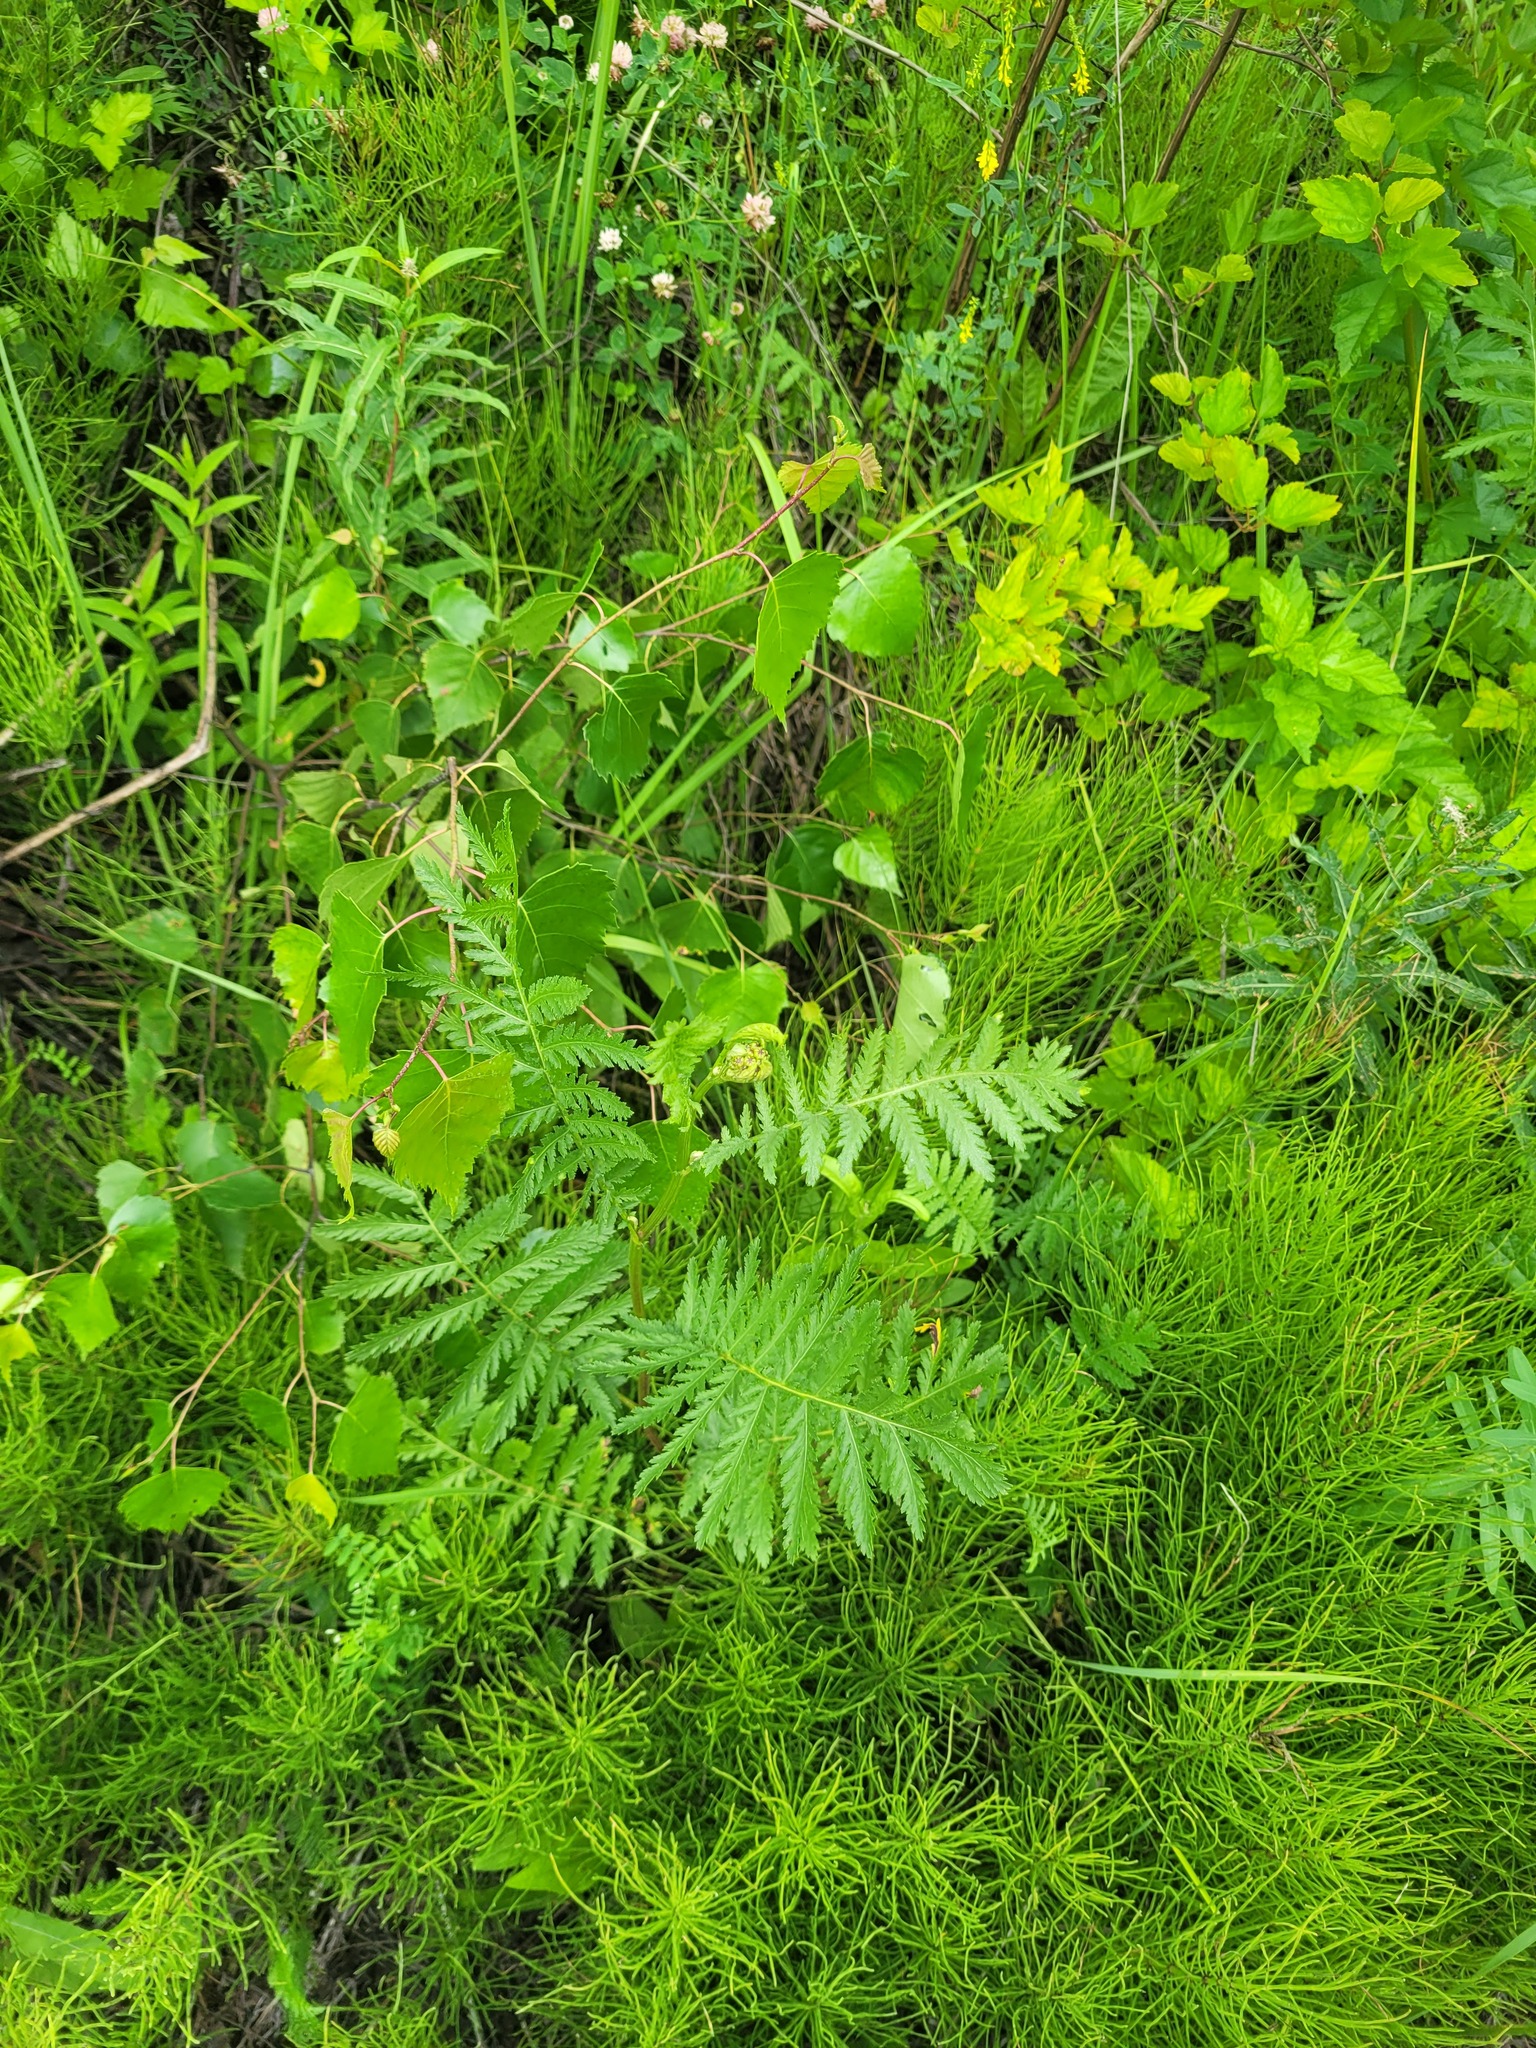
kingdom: Plantae
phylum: Tracheophyta
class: Magnoliopsida
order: Asterales
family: Asteraceae
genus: Tanacetum
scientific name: Tanacetum vulgare
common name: Common tansy
